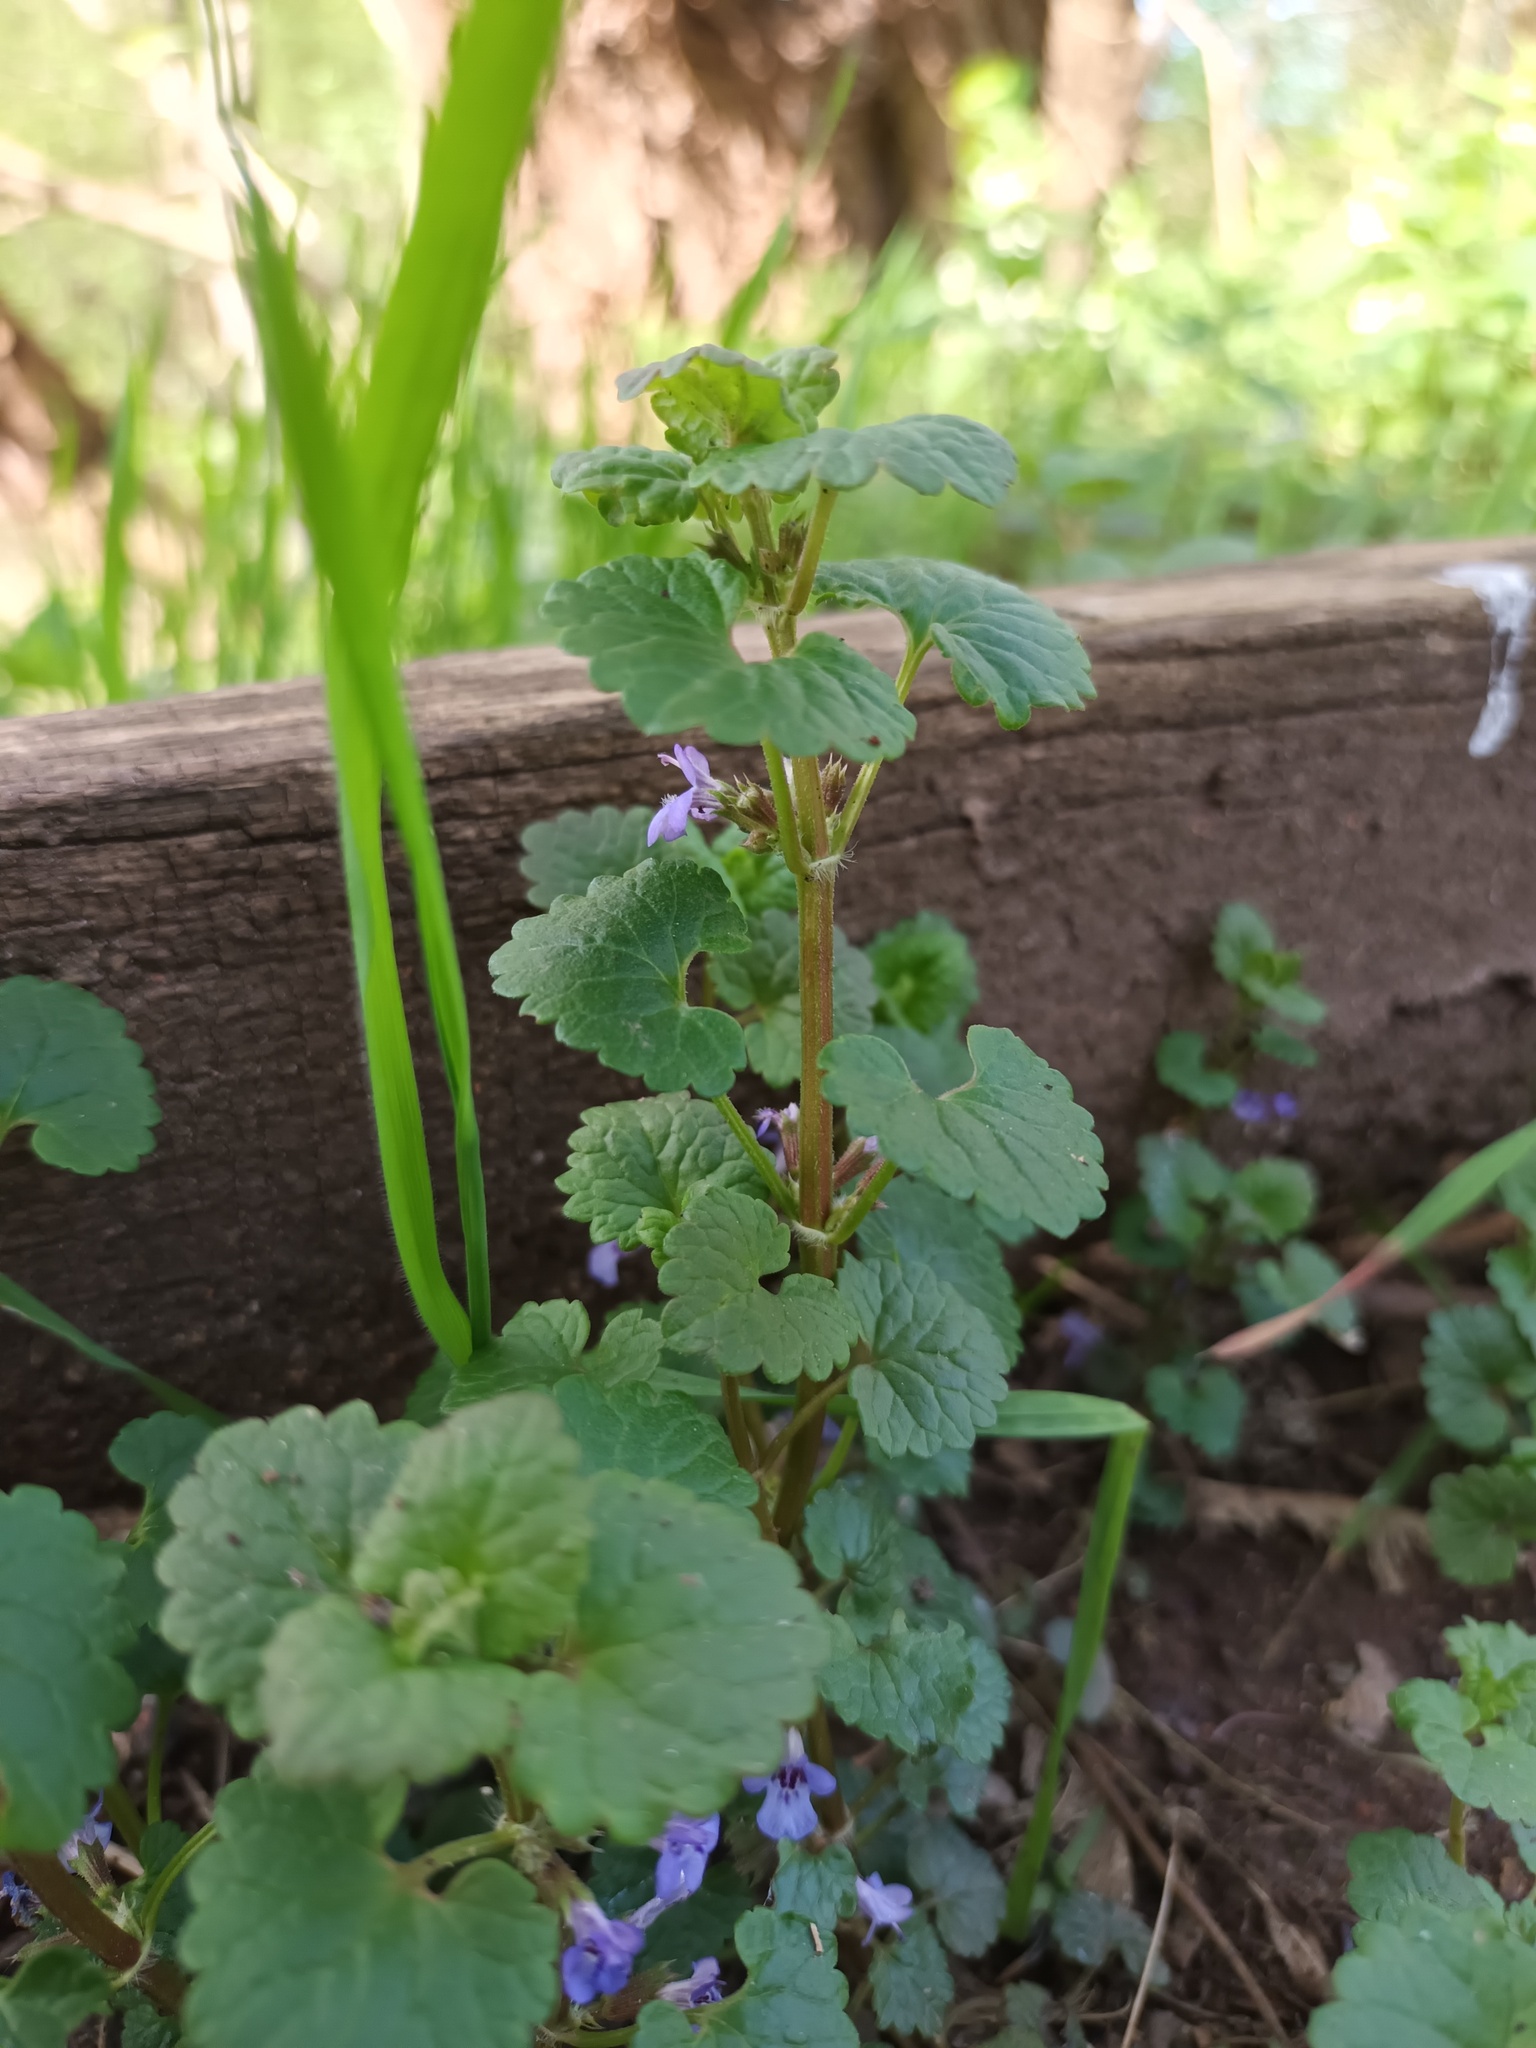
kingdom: Plantae
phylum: Tracheophyta
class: Magnoliopsida
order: Lamiales
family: Lamiaceae
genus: Glechoma
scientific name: Glechoma hederacea
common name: Ground ivy
